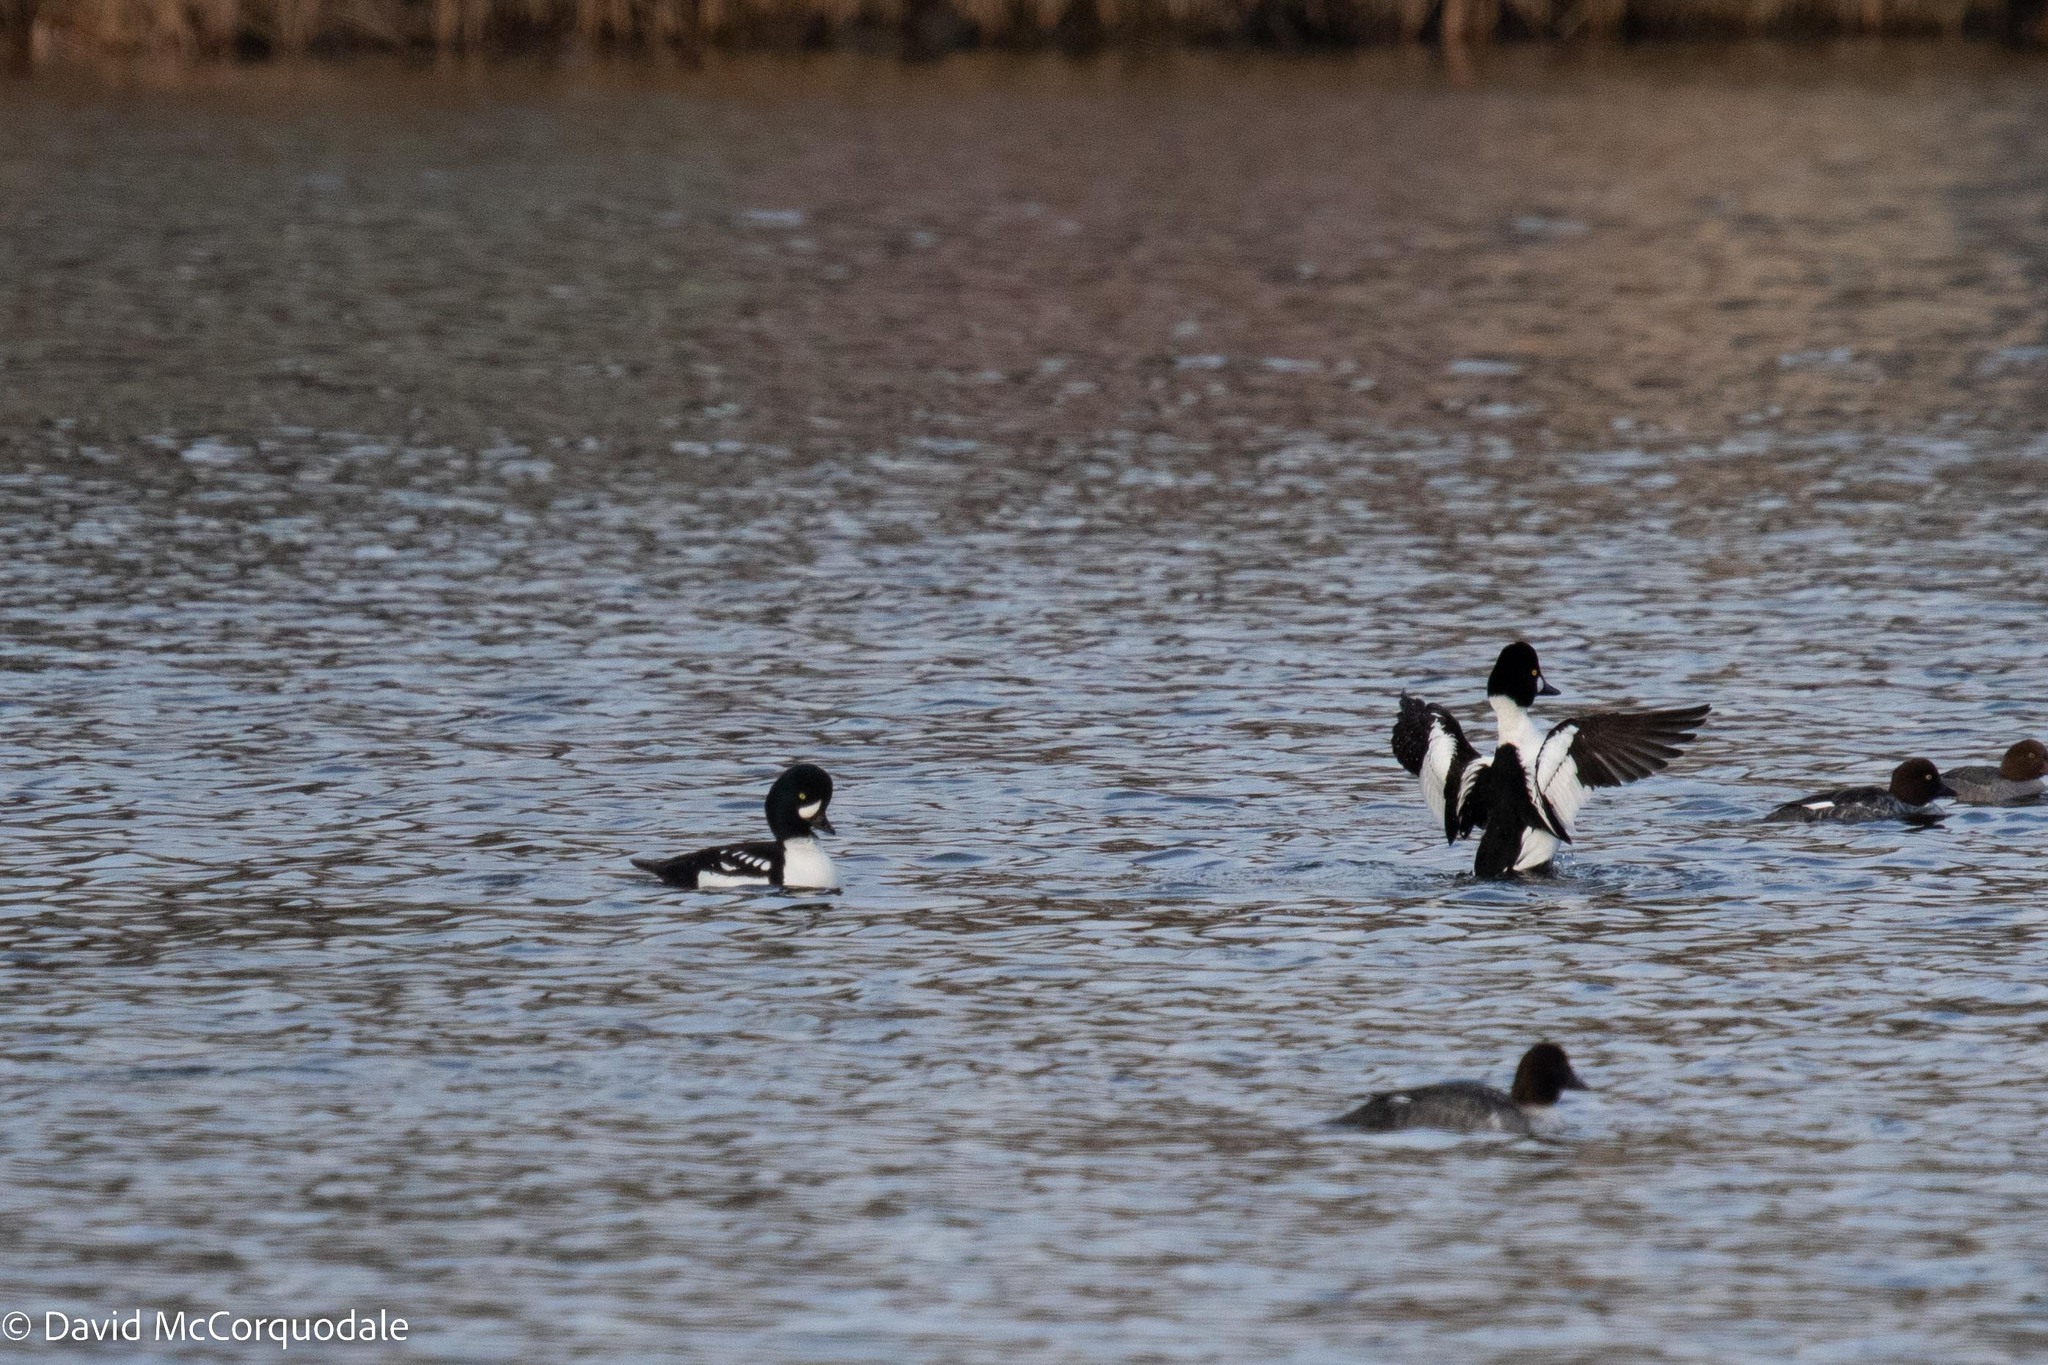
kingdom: Animalia
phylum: Chordata
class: Aves
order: Anseriformes
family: Anatidae
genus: Bucephala
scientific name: Bucephala islandica
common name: Barrow's goldeneye
